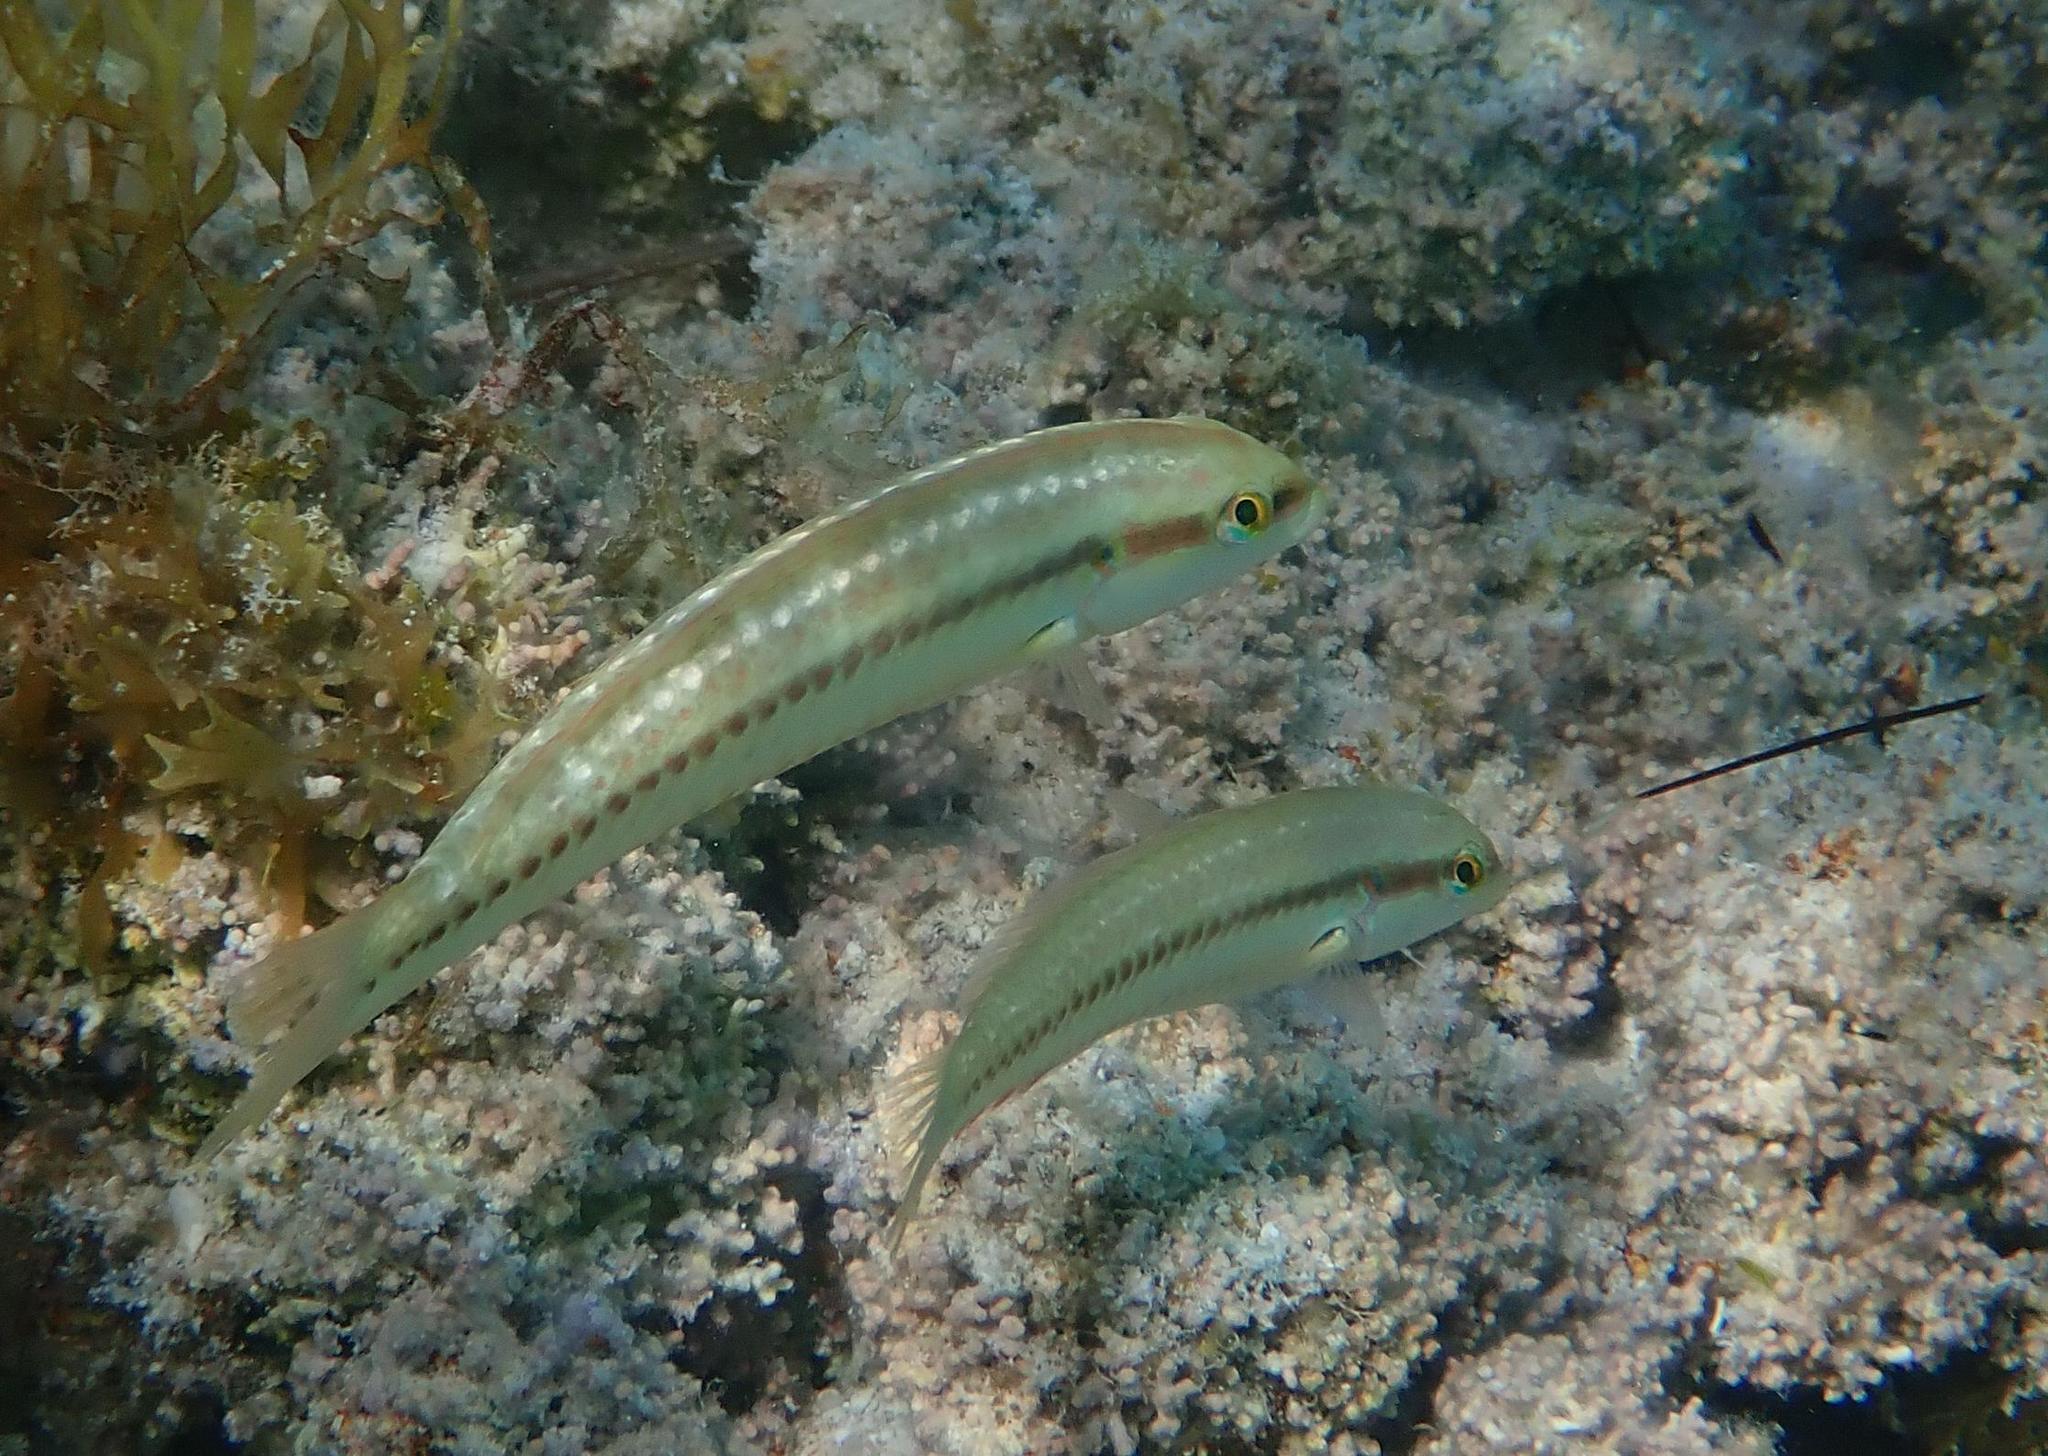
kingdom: Animalia
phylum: Chordata
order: Perciformes
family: Labridae
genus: Halichoeres
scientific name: Halichoeres bivittatus
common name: Slippery dick
